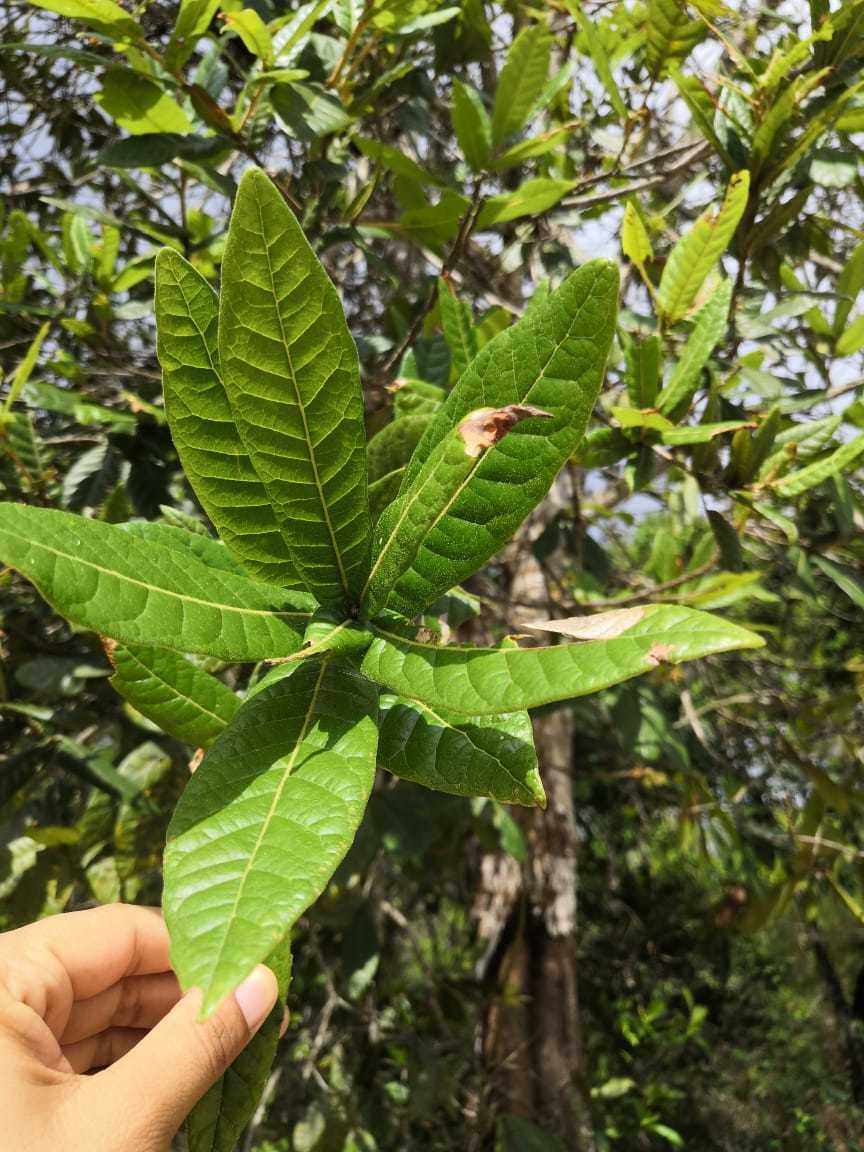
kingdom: Plantae
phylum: Tracheophyta
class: Magnoliopsida
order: Fagales
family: Fagaceae
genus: Quercus
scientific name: Quercus elliptica
